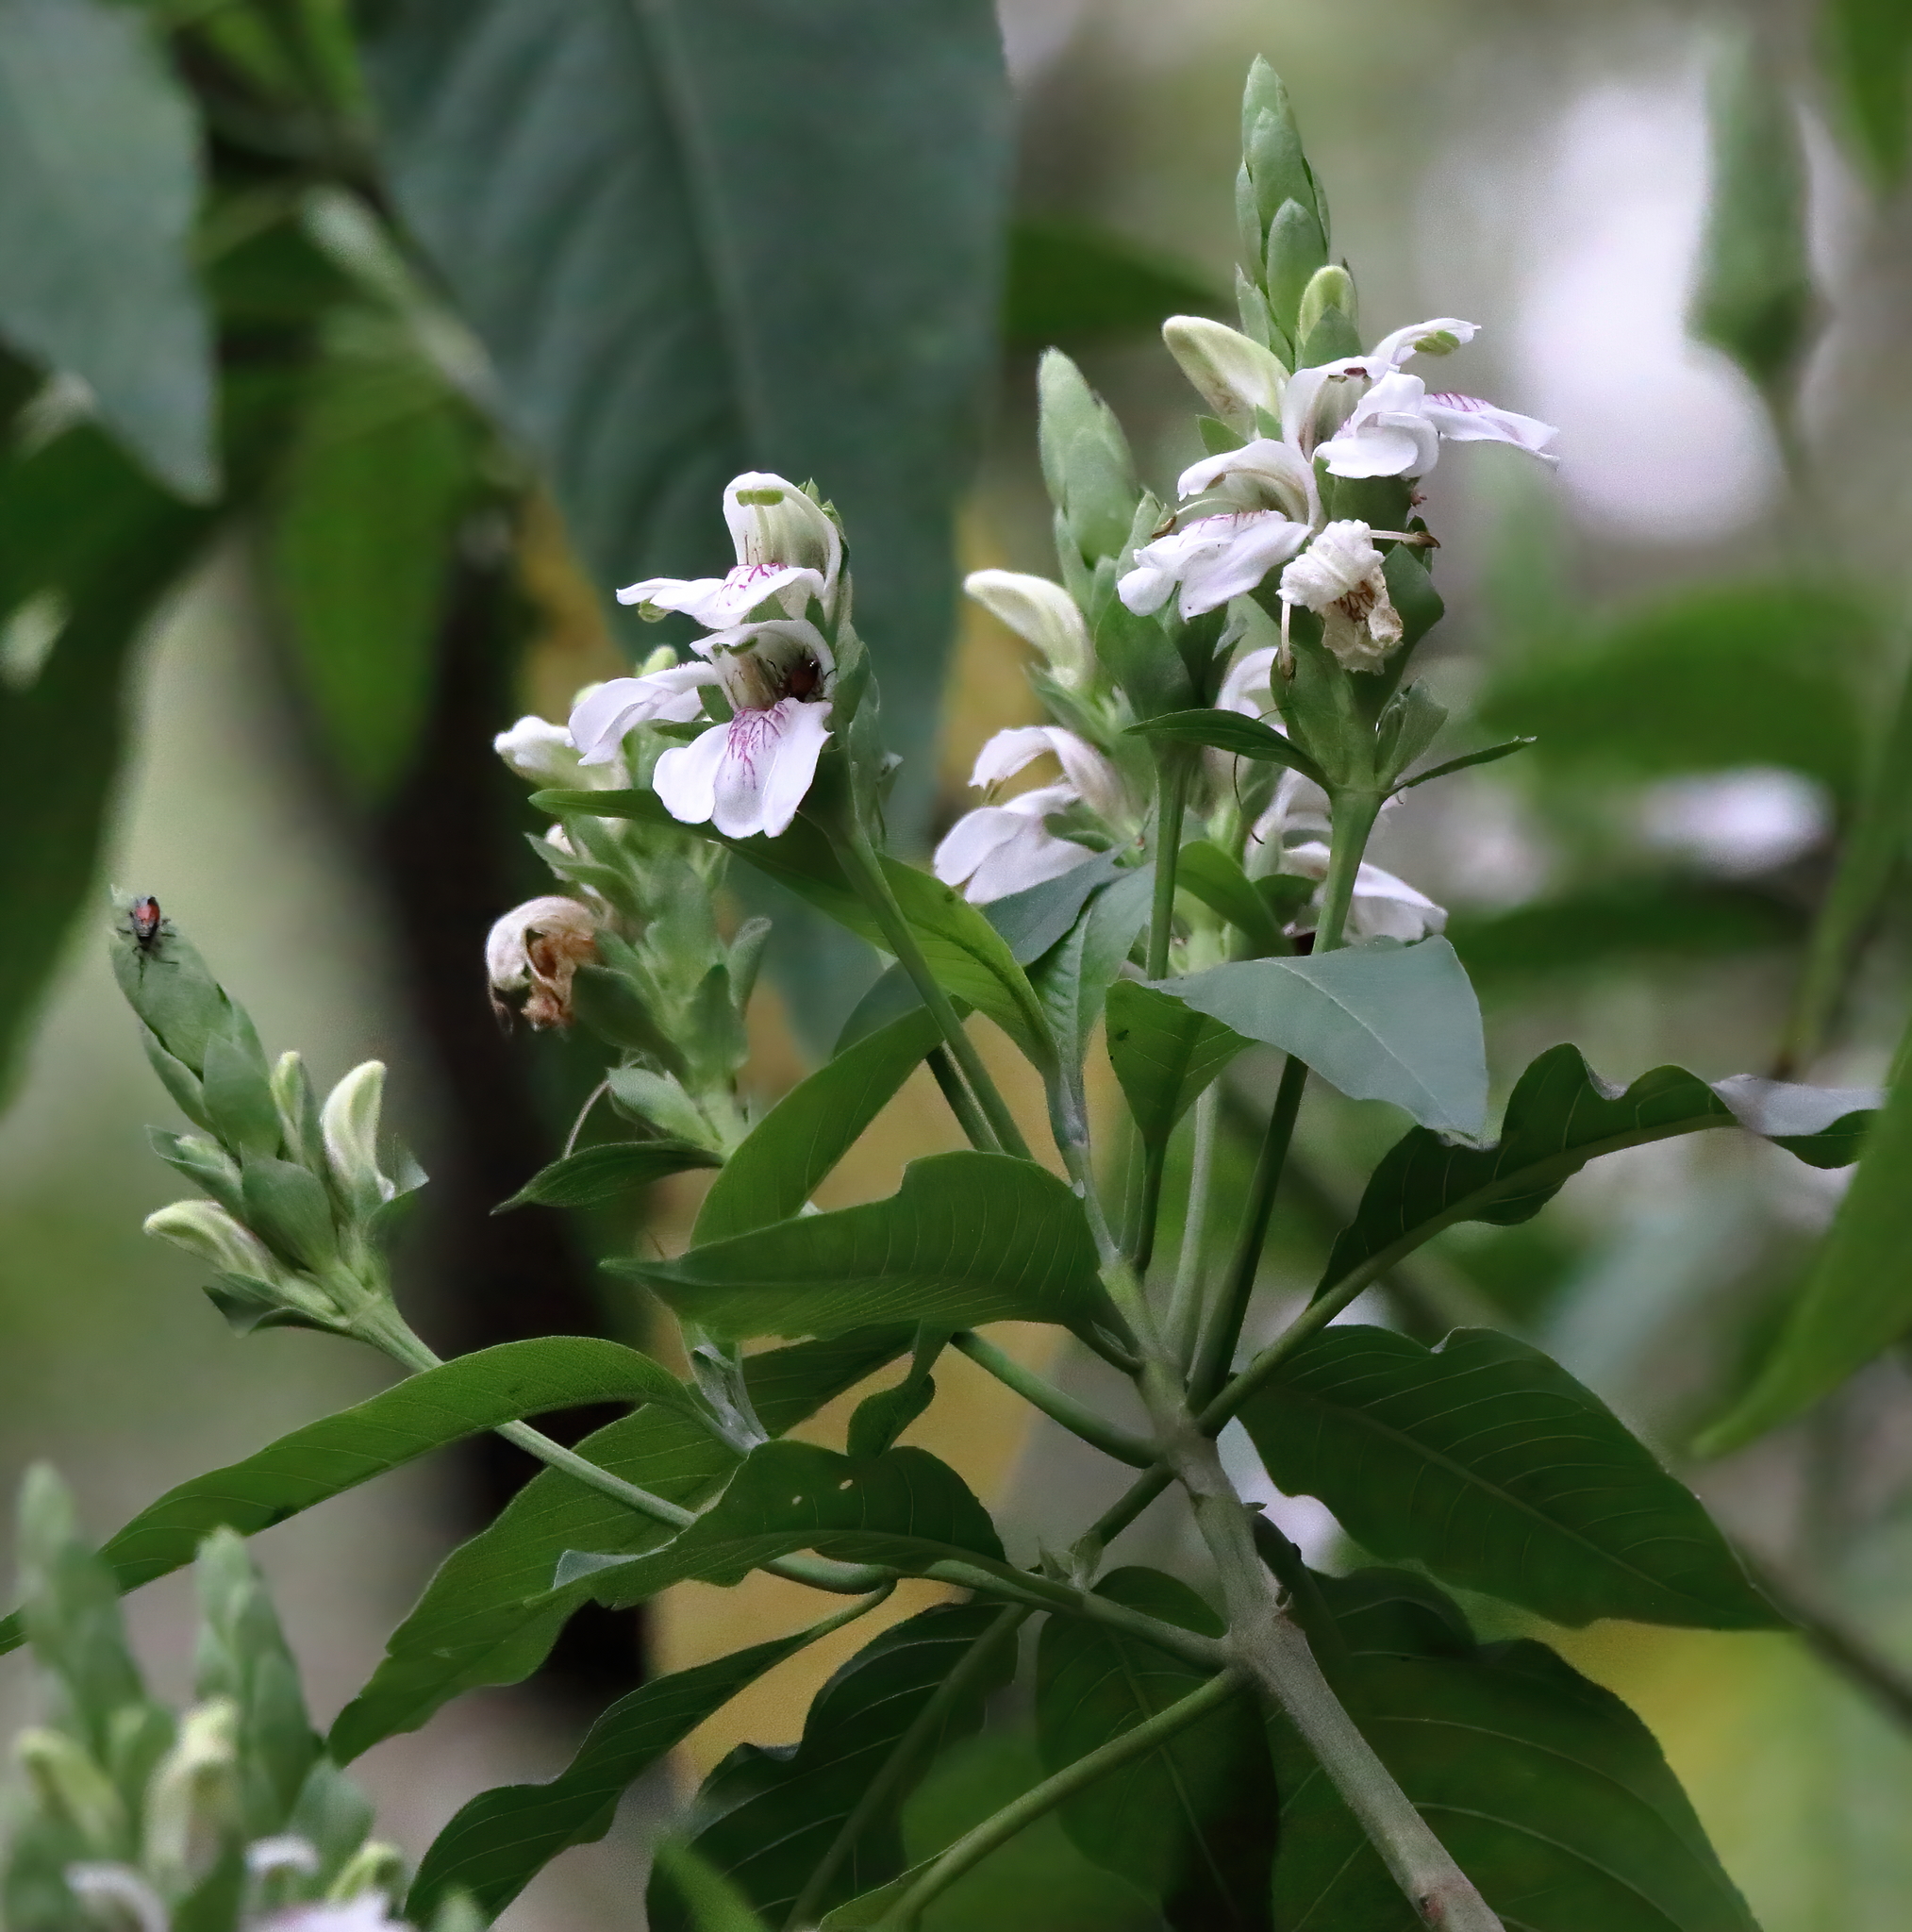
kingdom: Plantae
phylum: Tracheophyta
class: Magnoliopsida
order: Lamiales
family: Acanthaceae
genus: Justicia
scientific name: Justicia adhatoda
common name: Malabar nut
